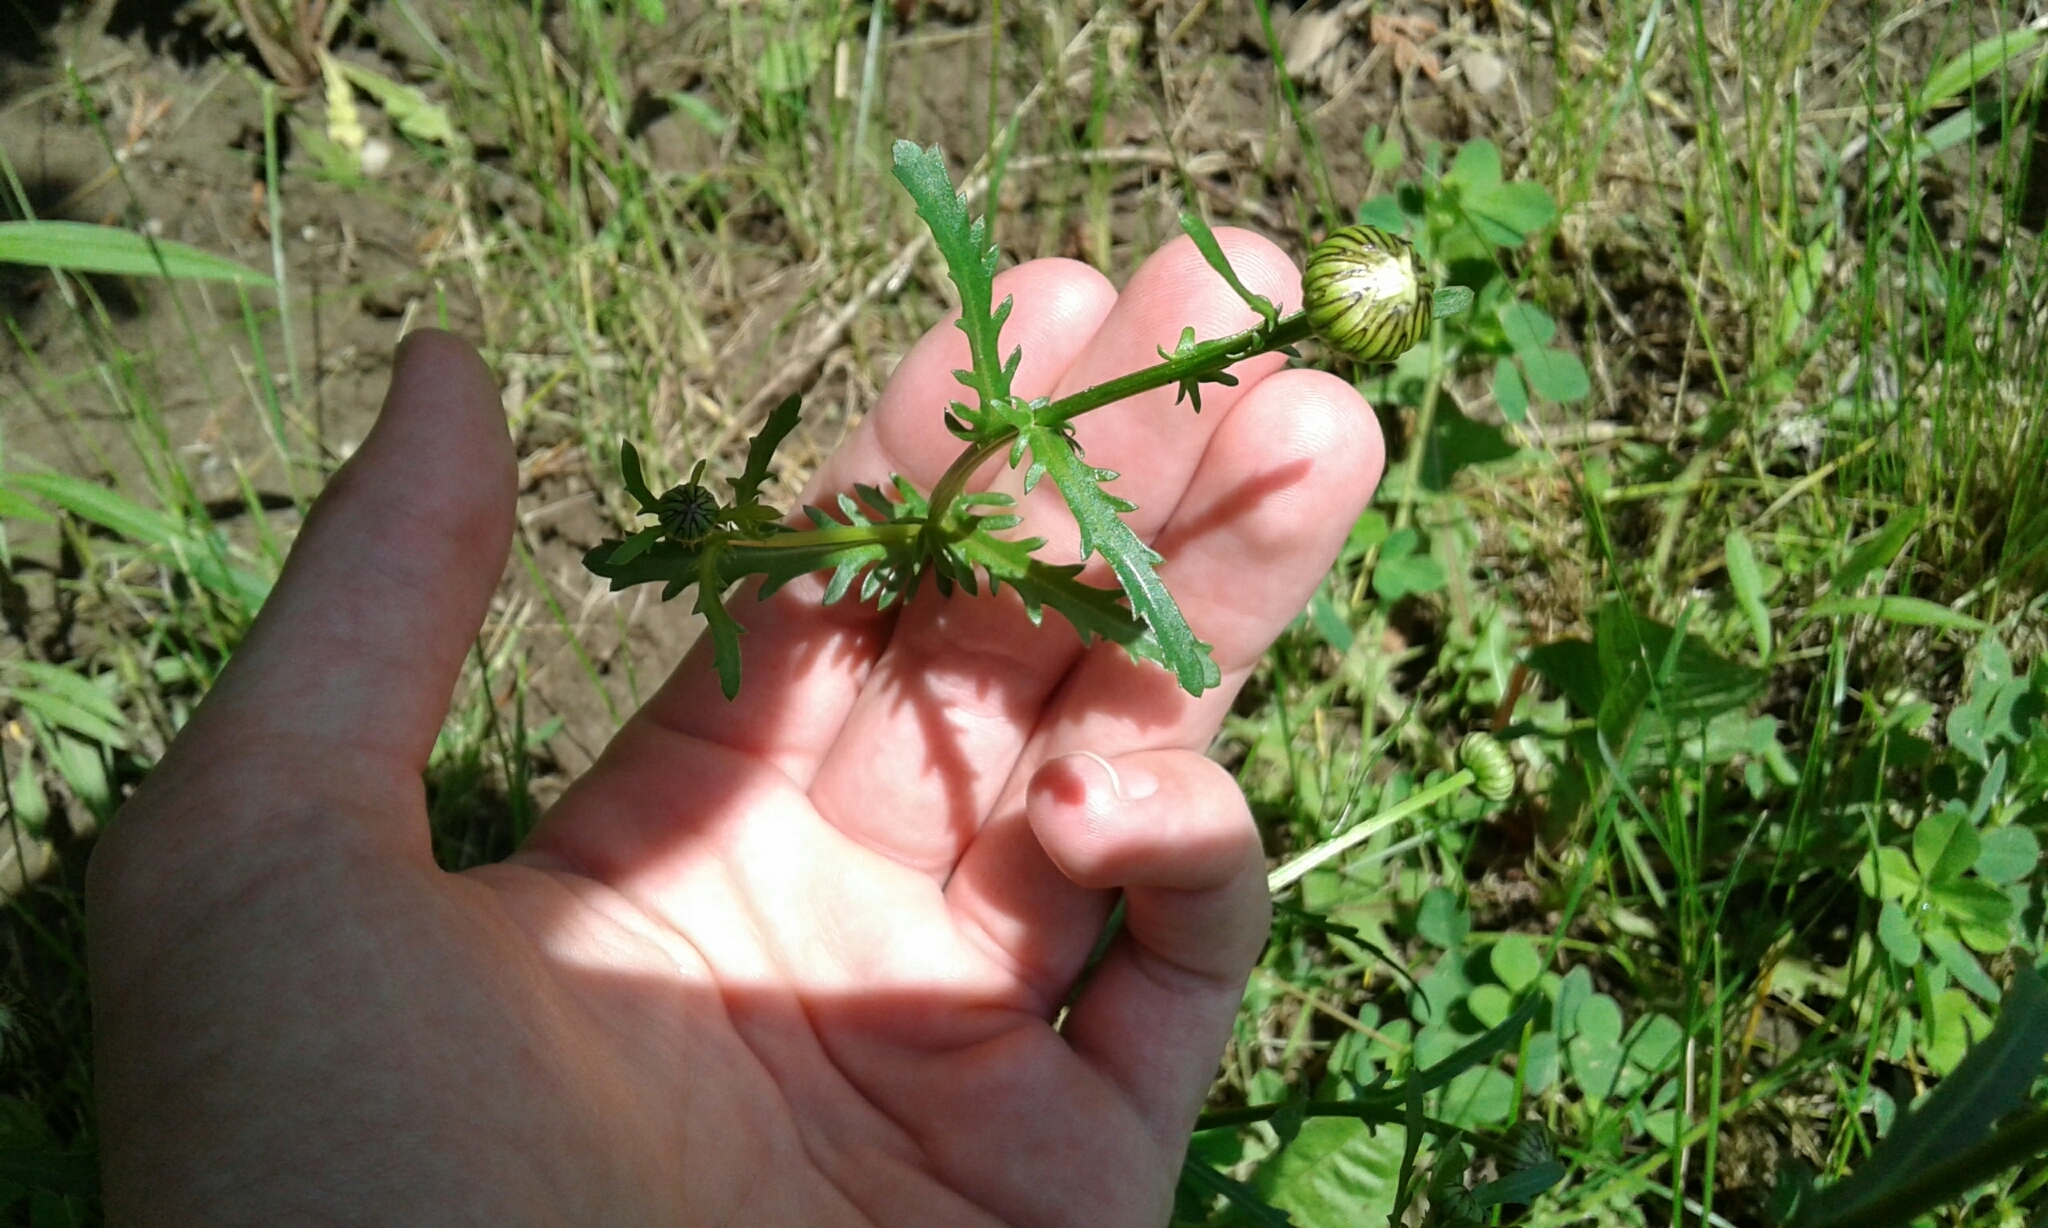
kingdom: Plantae
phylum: Tracheophyta
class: Magnoliopsida
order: Asterales
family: Asteraceae
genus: Leucanthemum
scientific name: Leucanthemum vulgare
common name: Oxeye daisy
